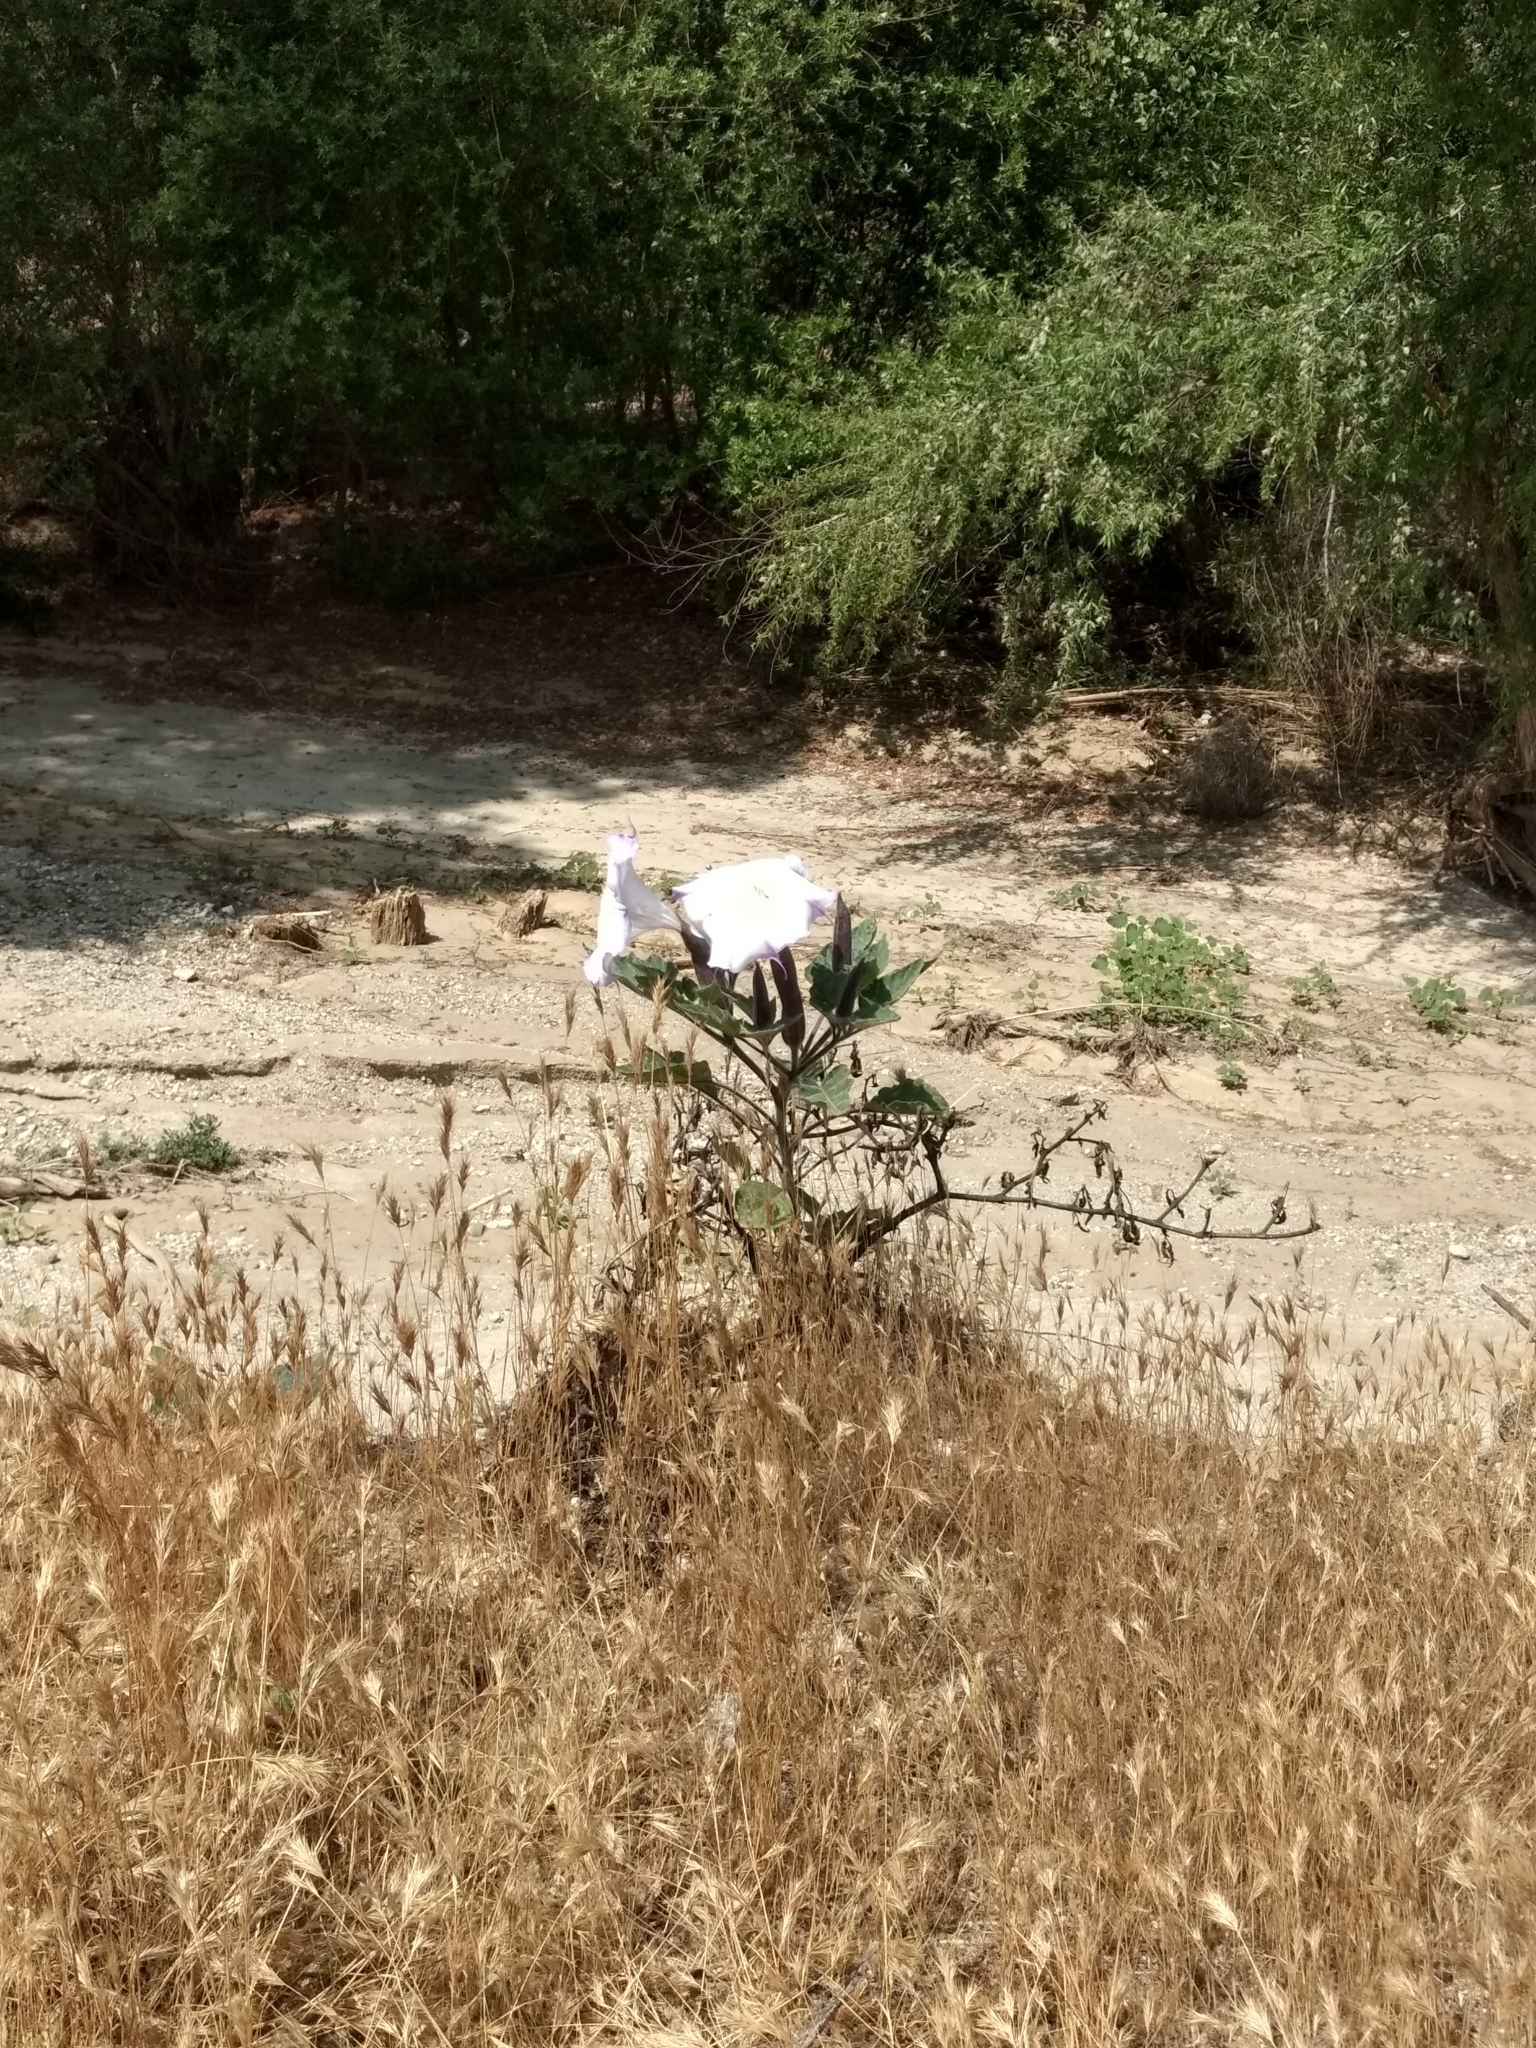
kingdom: Plantae
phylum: Tracheophyta
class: Magnoliopsida
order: Solanales
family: Solanaceae
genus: Datura
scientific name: Datura wrightii
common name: Sacred thorn-apple
